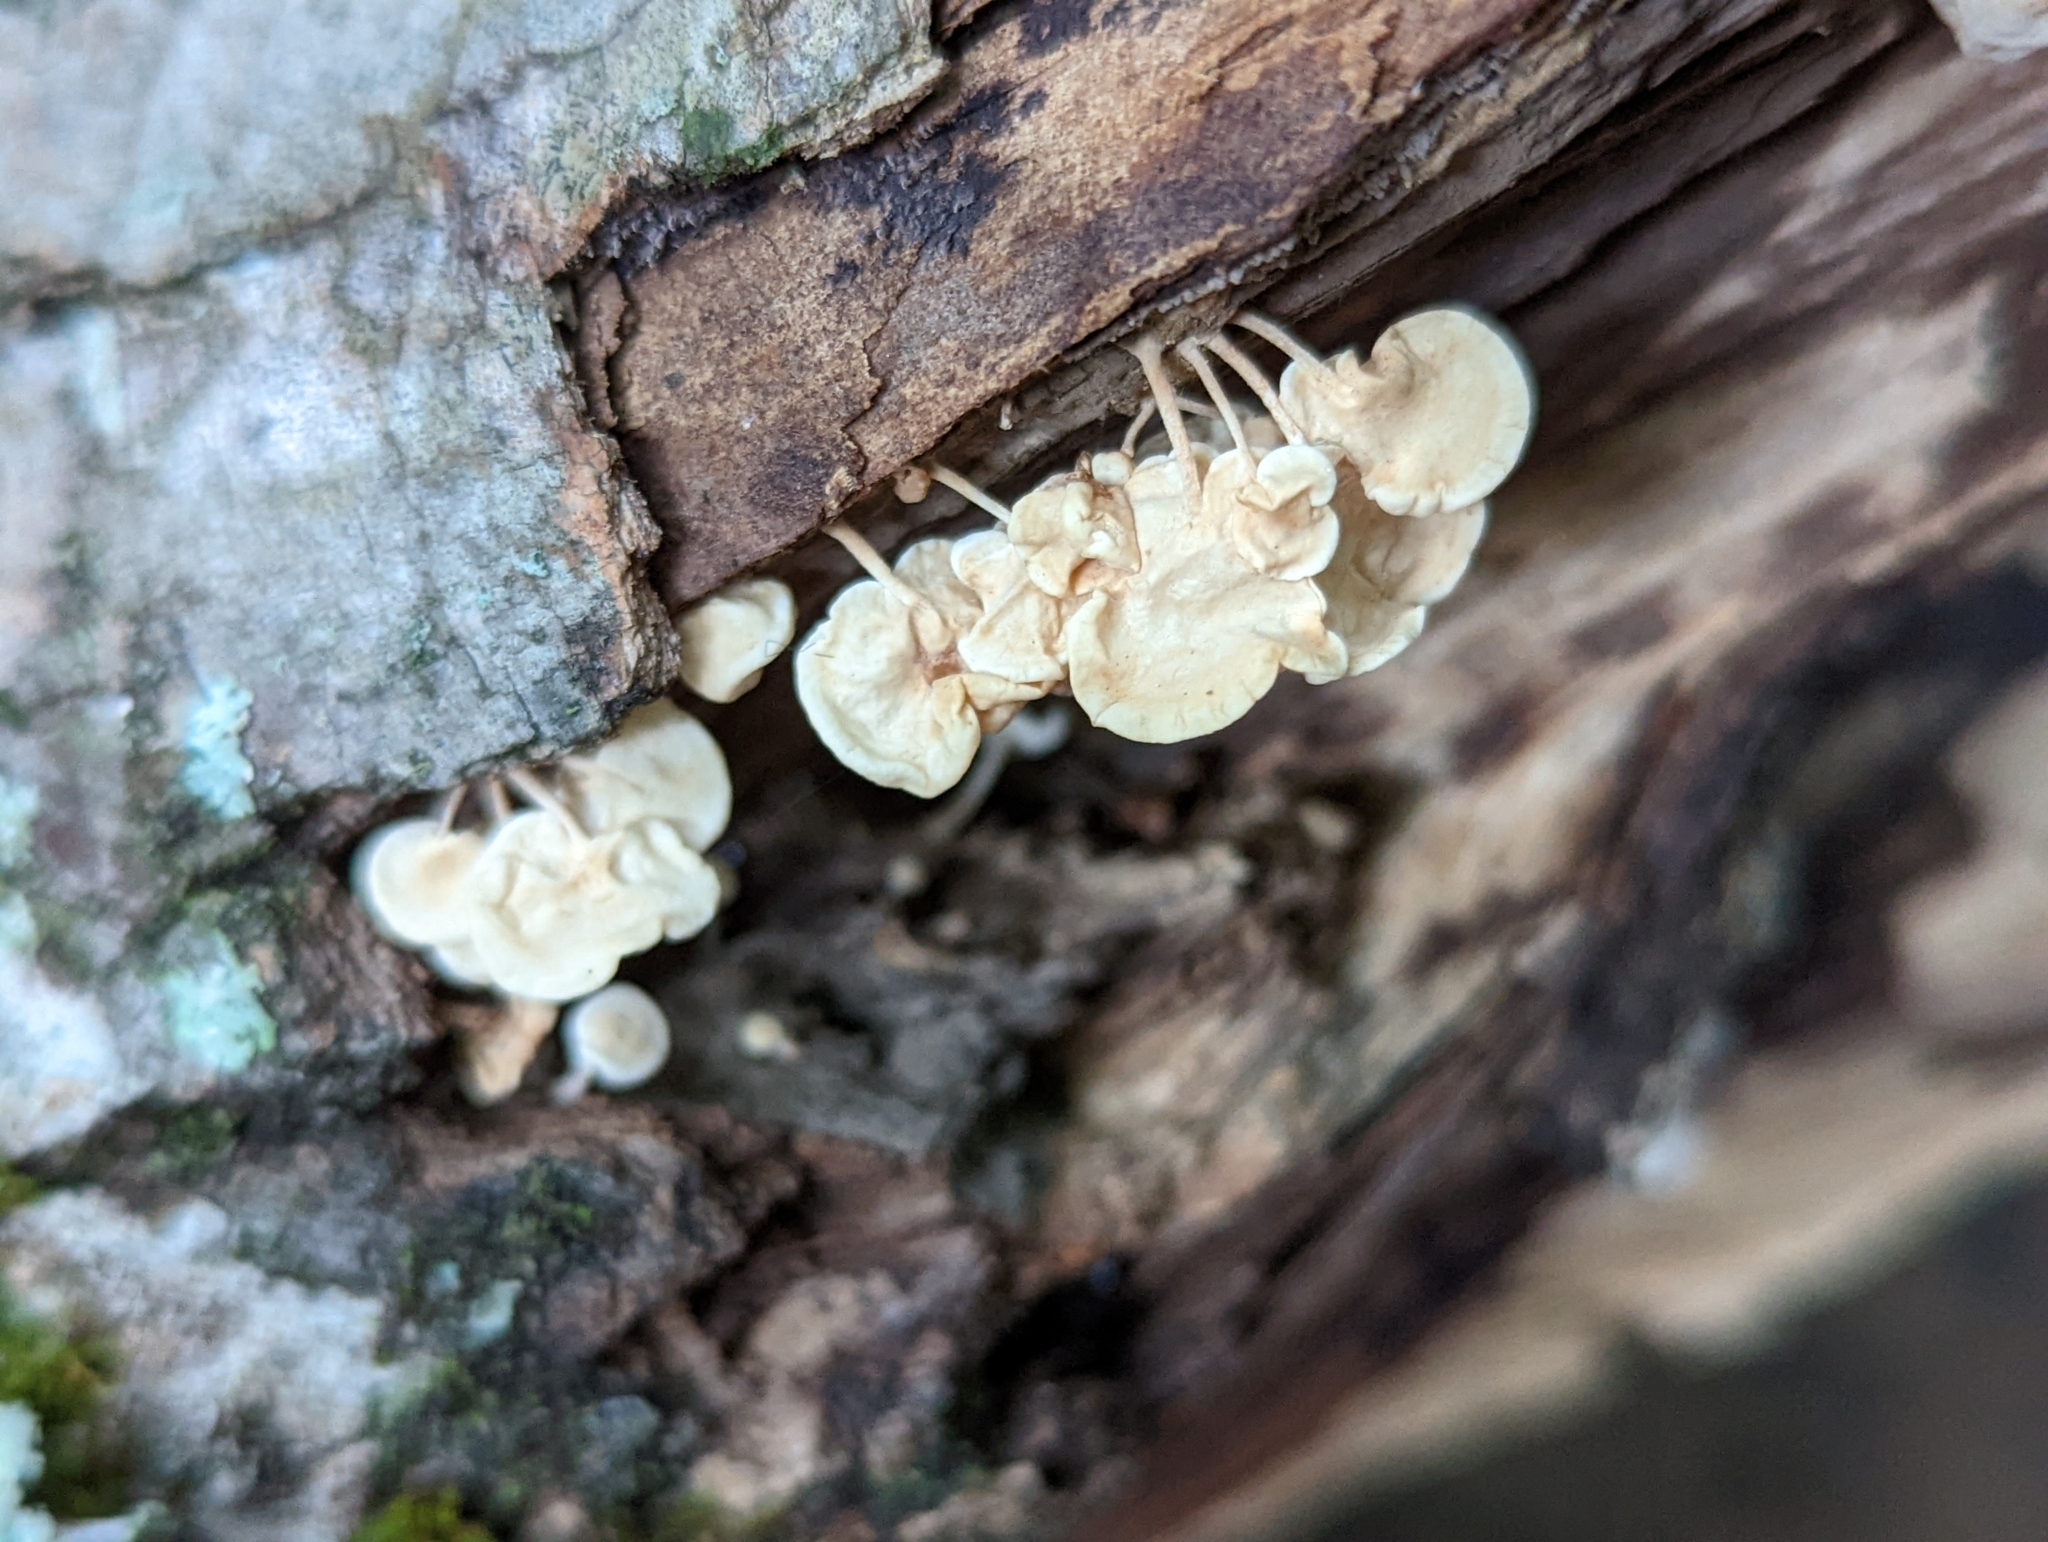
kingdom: Fungi
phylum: Basidiomycota
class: Agaricomycetes
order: Agaricales
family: Physalacriaceae
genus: Physalacria
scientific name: Physalacria inflata
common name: Bladder stalks
